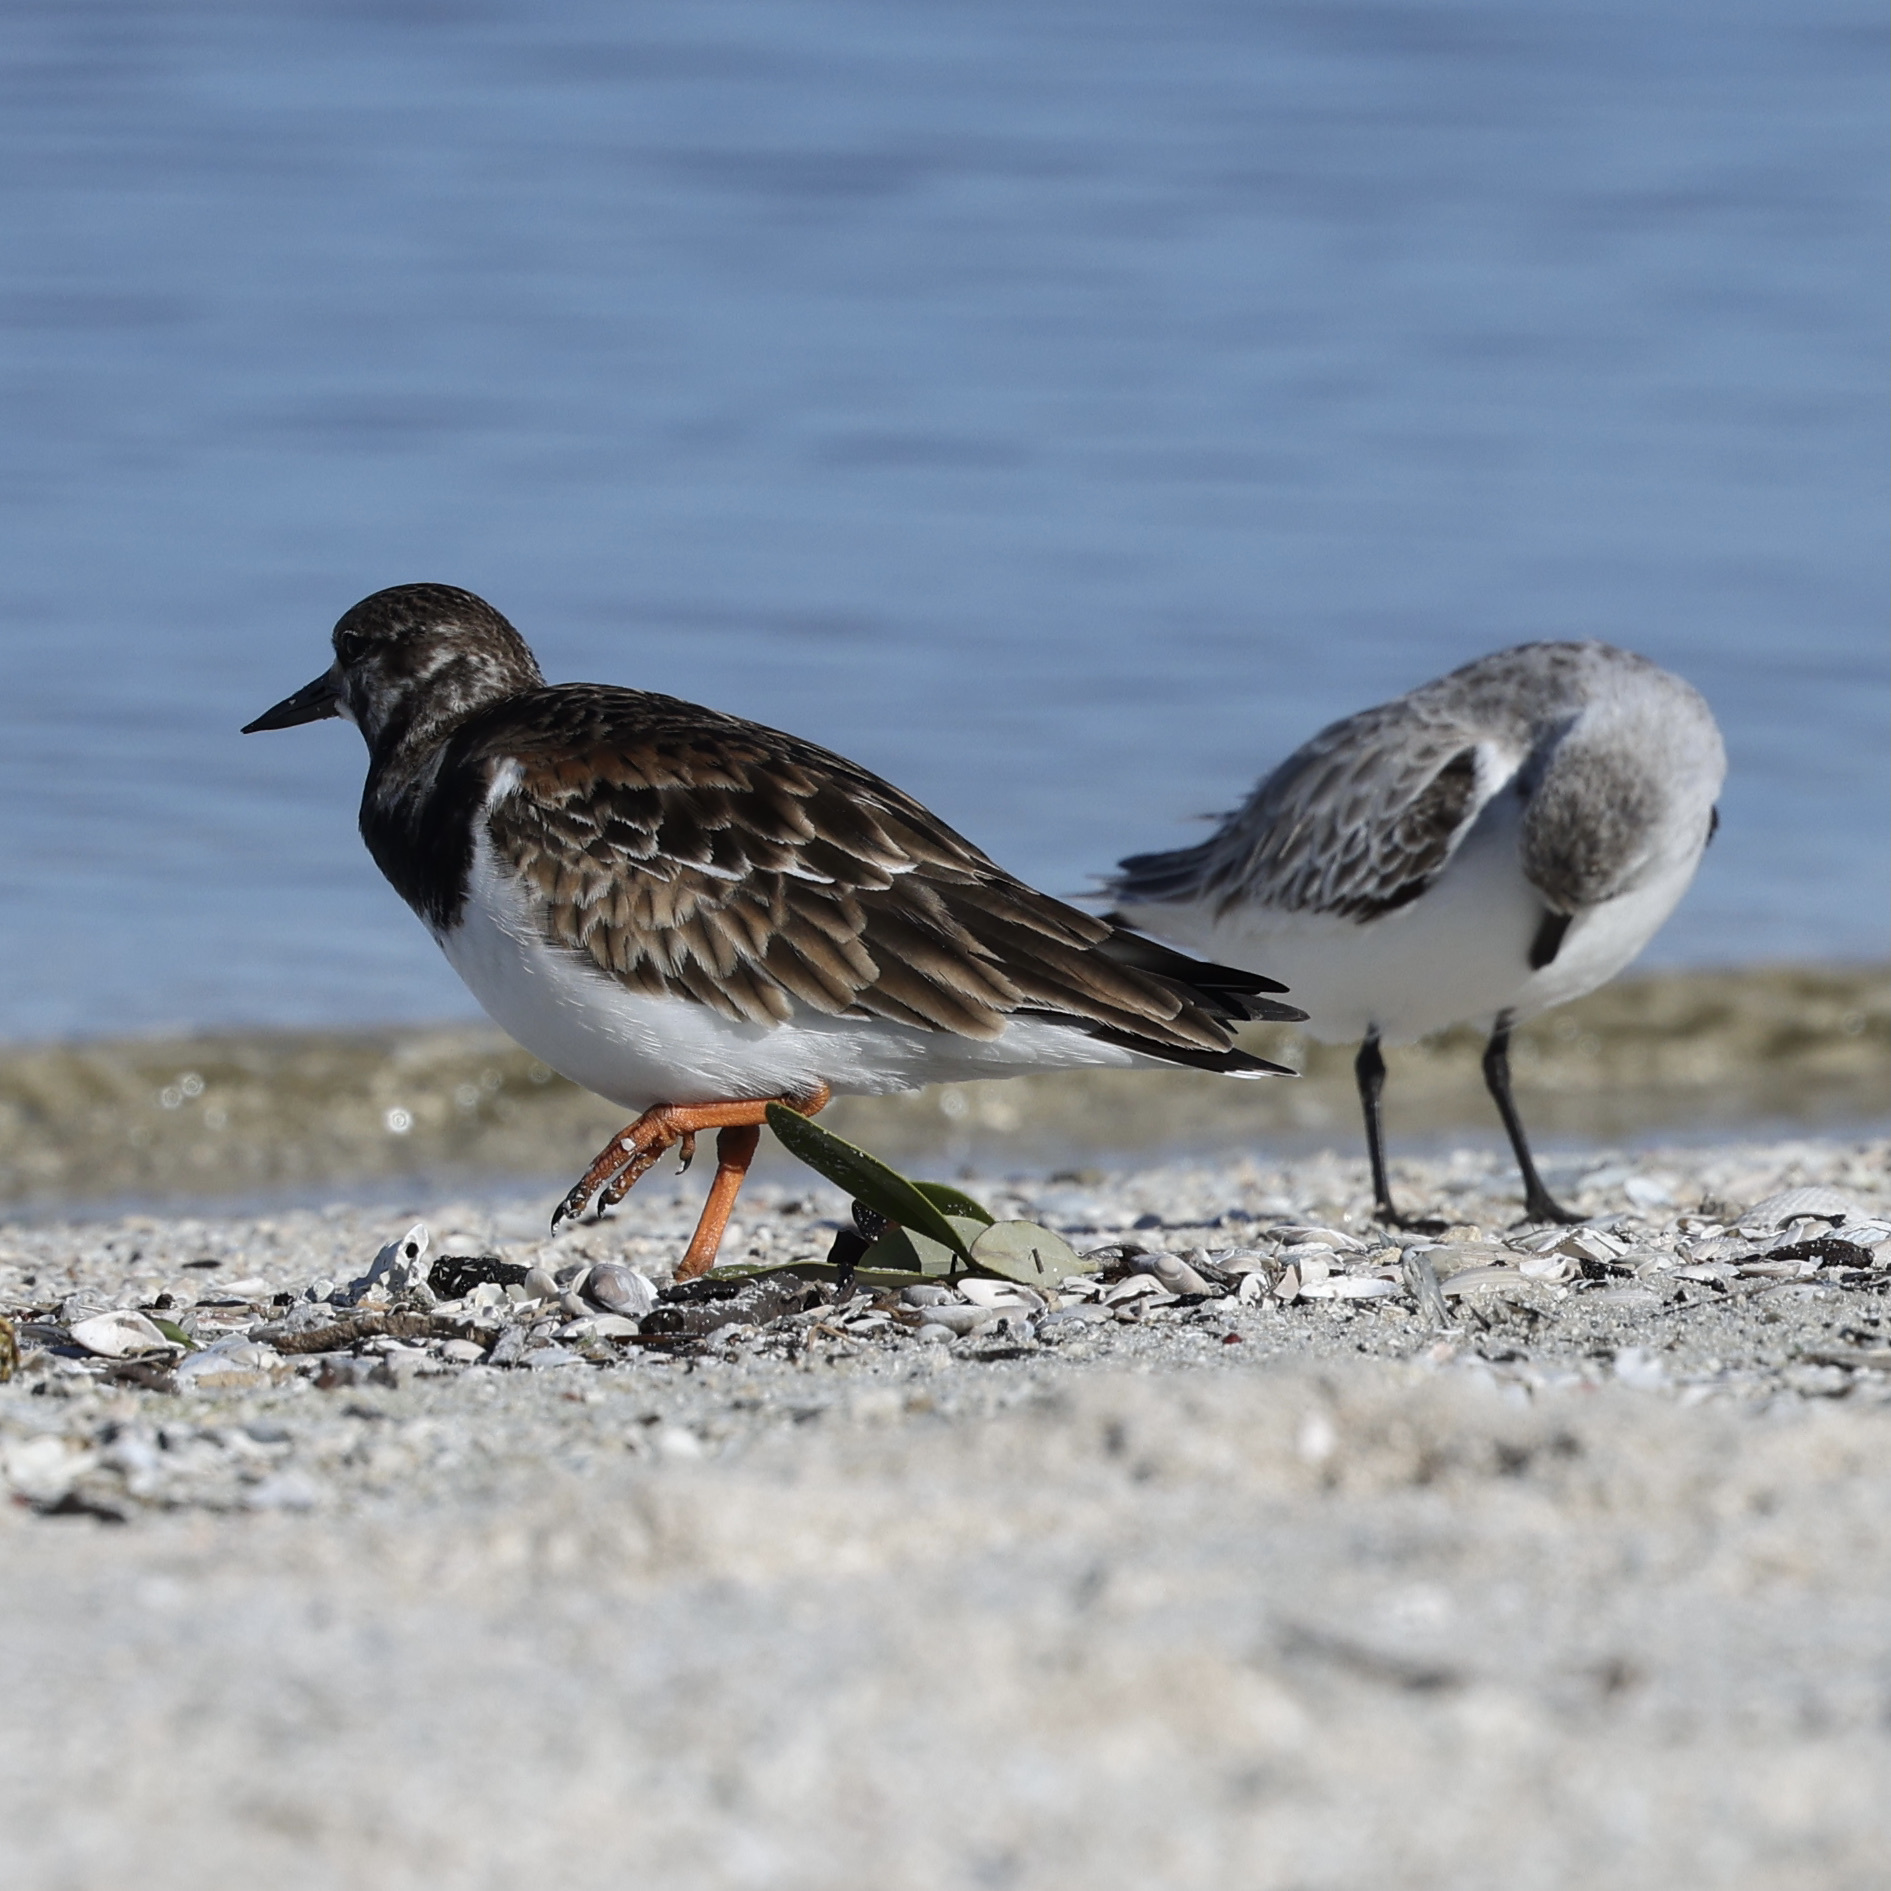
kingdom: Animalia
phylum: Chordata
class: Aves
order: Charadriiformes
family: Scolopacidae
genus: Arenaria
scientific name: Arenaria interpres
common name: Ruddy turnstone
